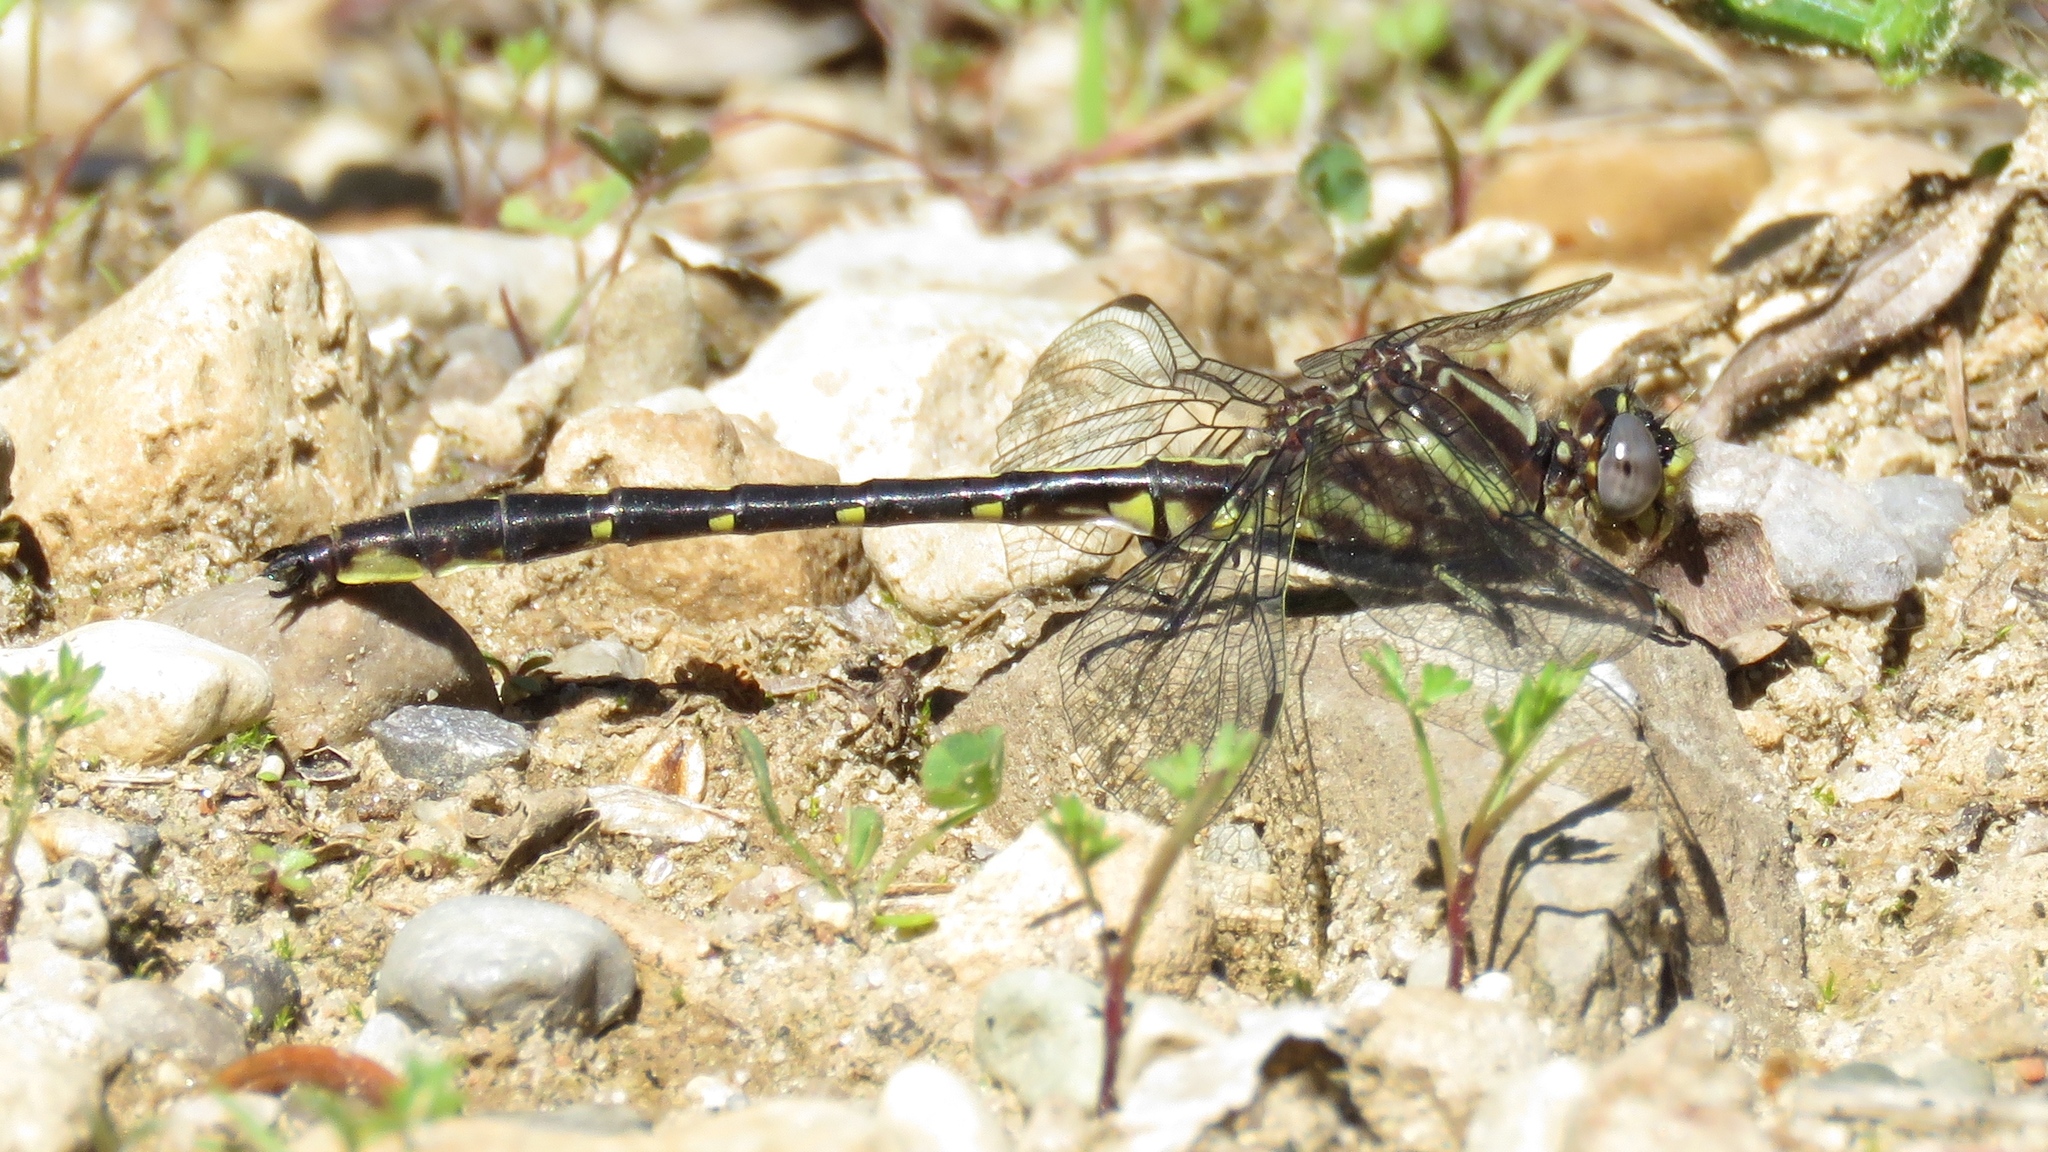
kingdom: Animalia
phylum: Arthropoda
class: Insecta
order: Odonata
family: Gomphidae
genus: Phanogomphus
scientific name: Phanogomphus lividus
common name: Ashy clubtail
